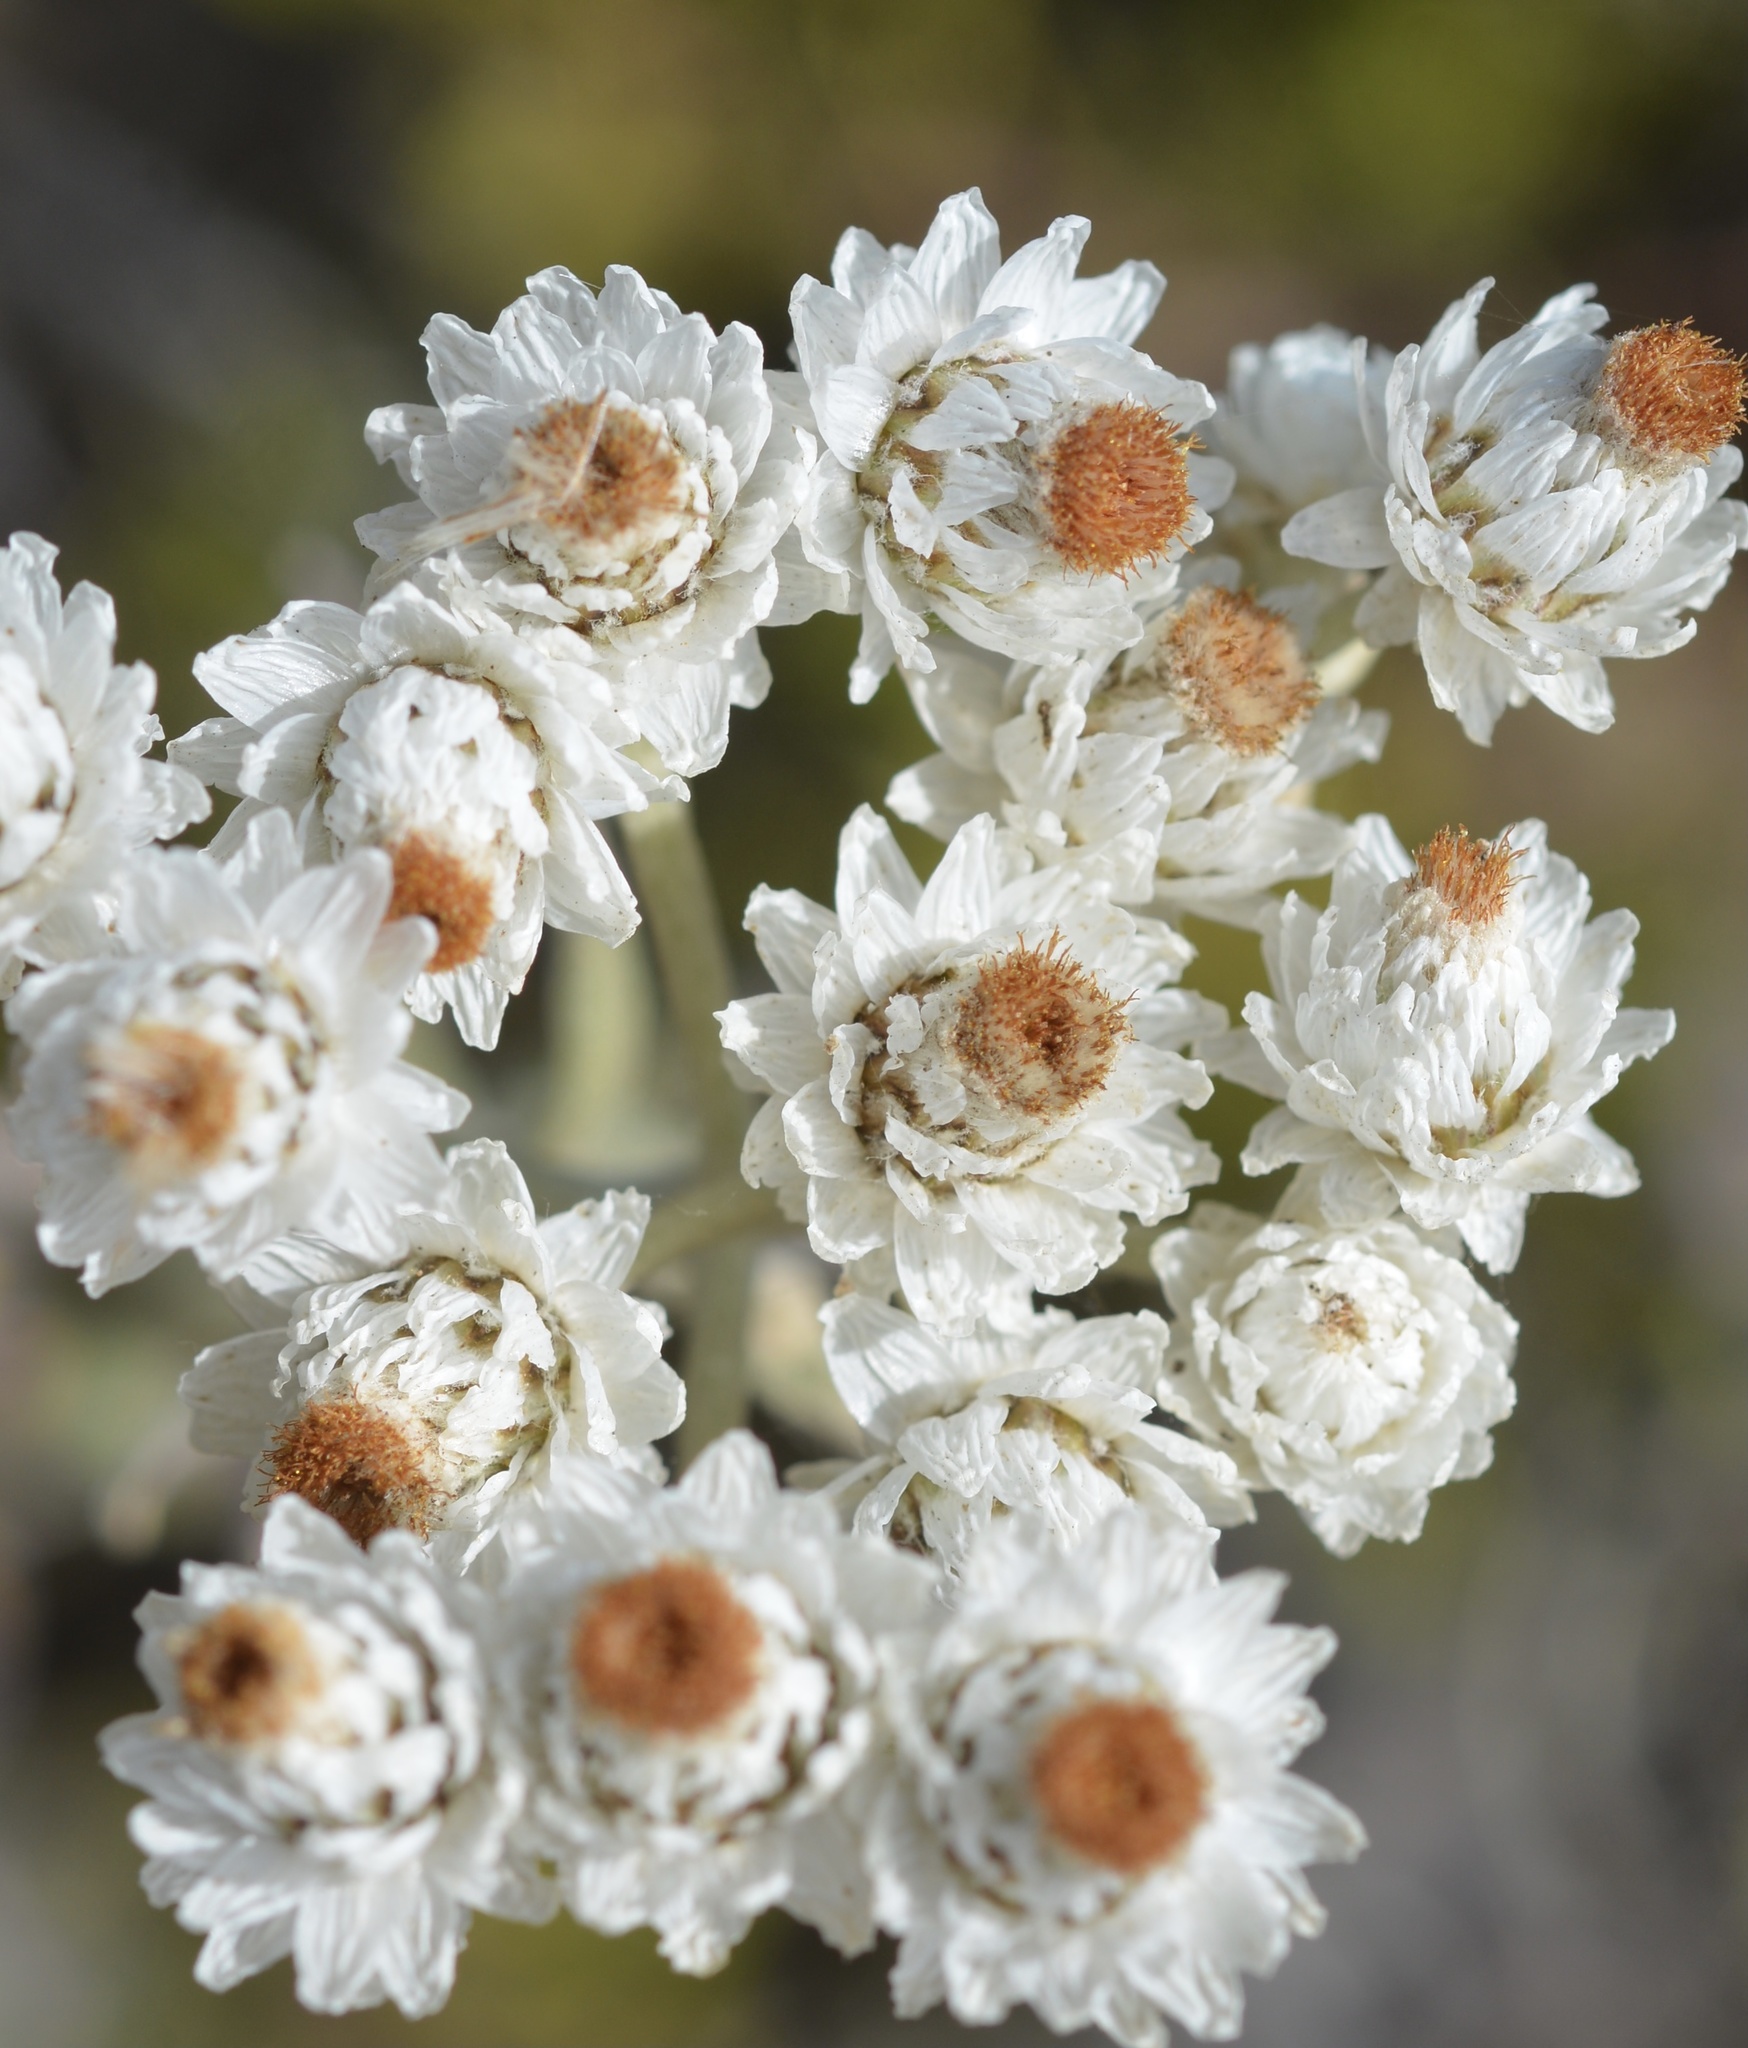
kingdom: Plantae
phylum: Tracheophyta
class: Magnoliopsida
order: Asterales
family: Asteraceae
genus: Anaphalis
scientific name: Anaphalis margaritacea
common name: Pearly everlasting
